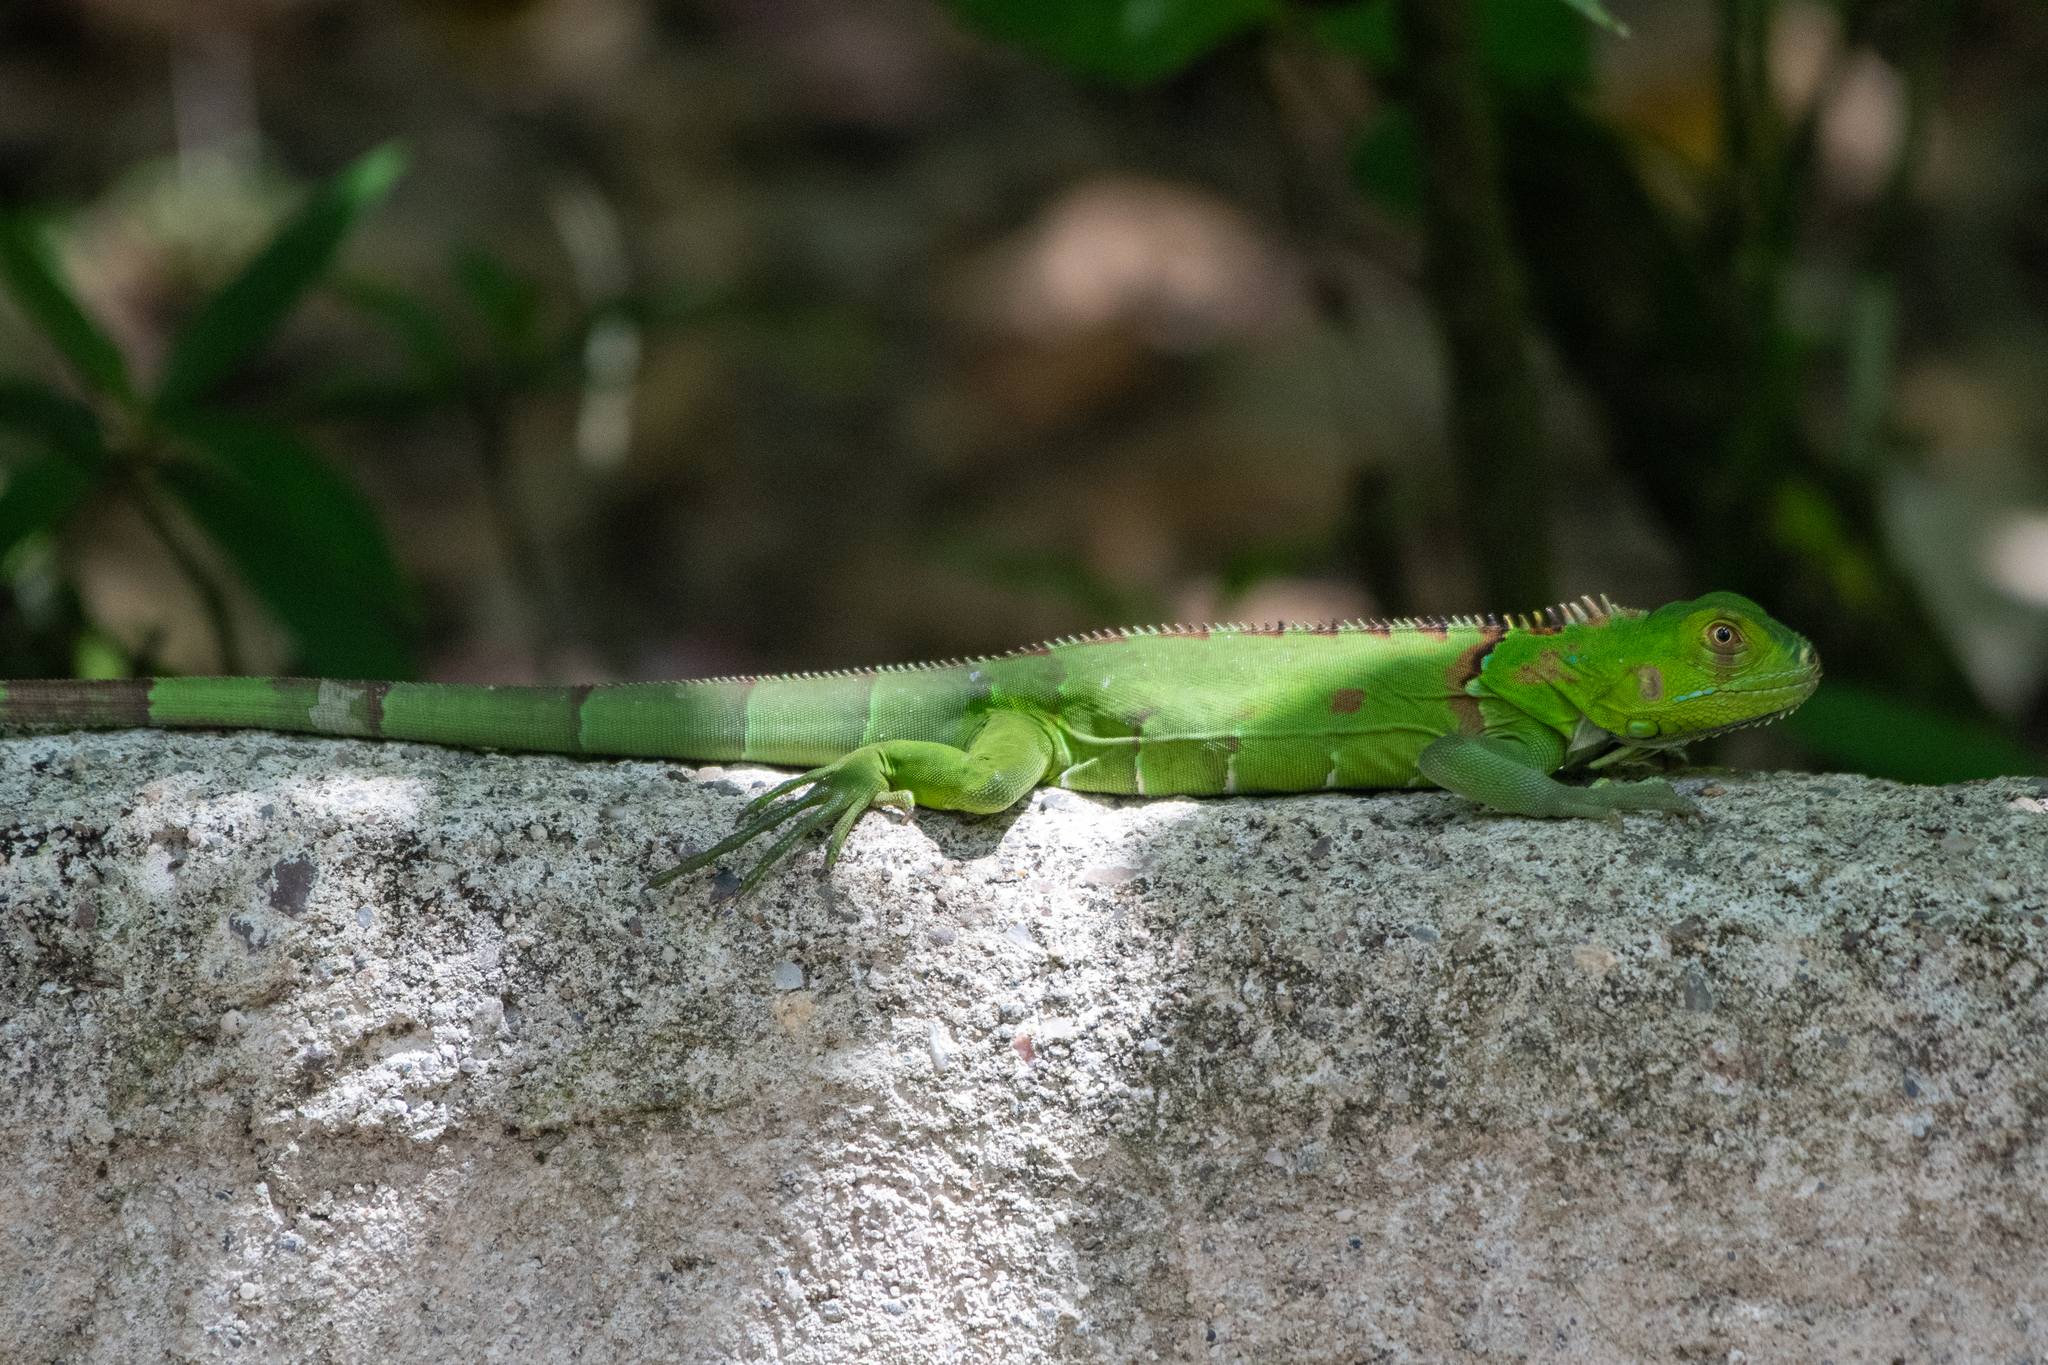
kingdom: Animalia
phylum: Chordata
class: Squamata
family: Iguanidae
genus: Iguana
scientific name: Iguana iguana
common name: Green iguana
